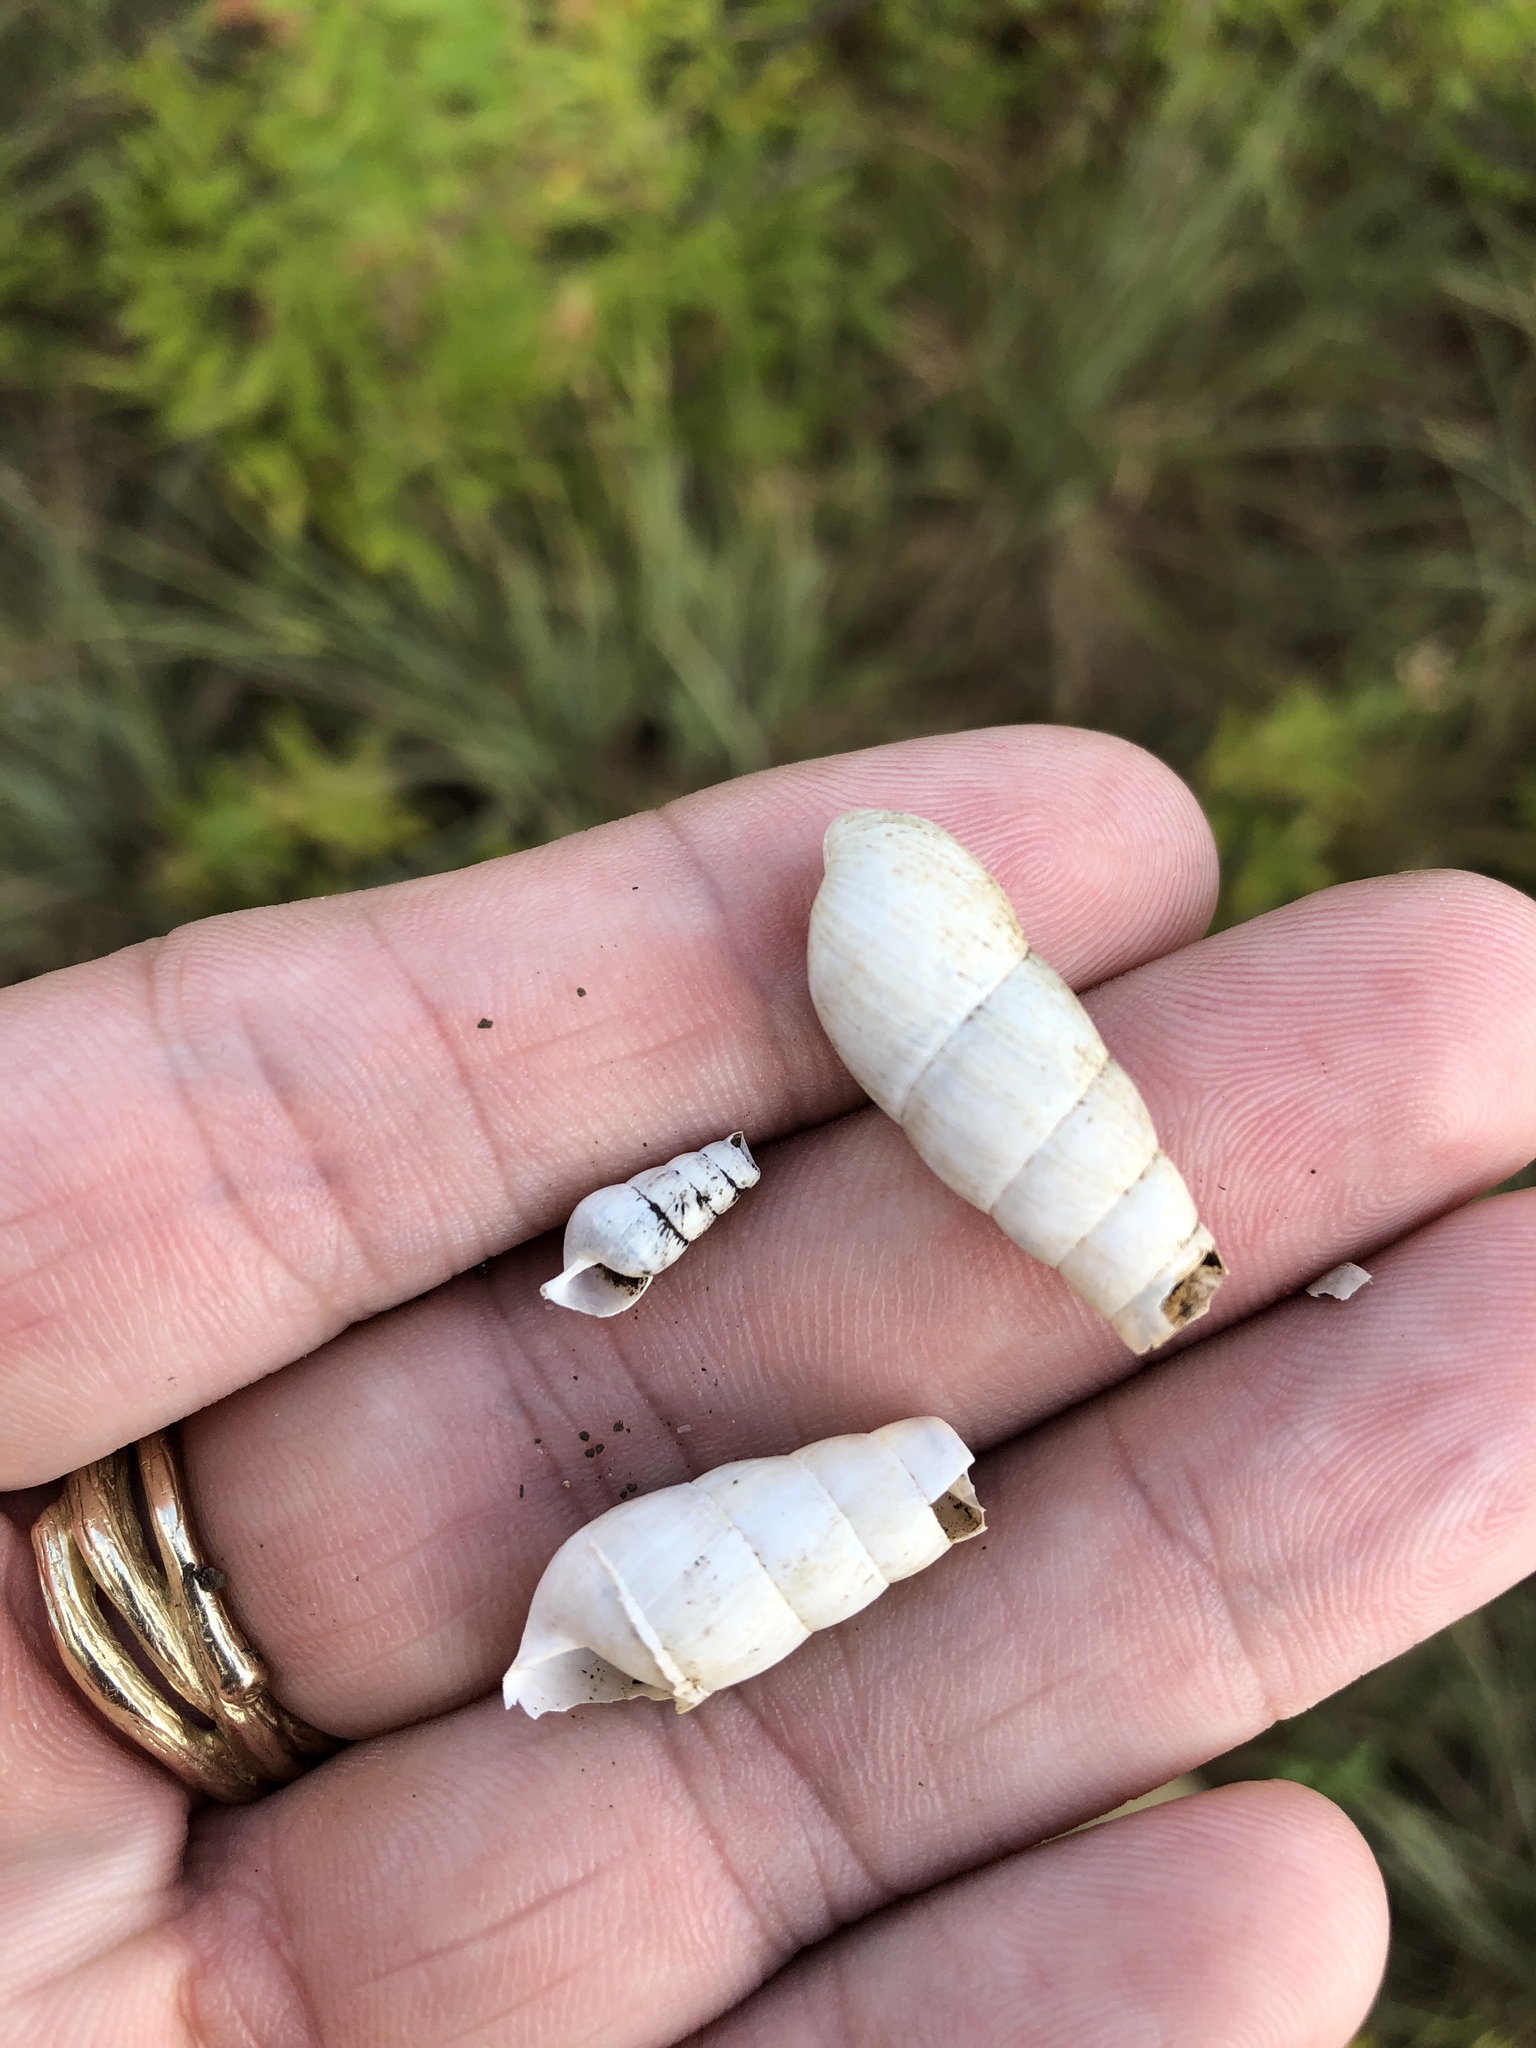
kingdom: Animalia
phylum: Mollusca
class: Gastropoda
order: Stylommatophora
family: Achatinidae
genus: Rumina
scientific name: Rumina decollata
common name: Decollate snail
